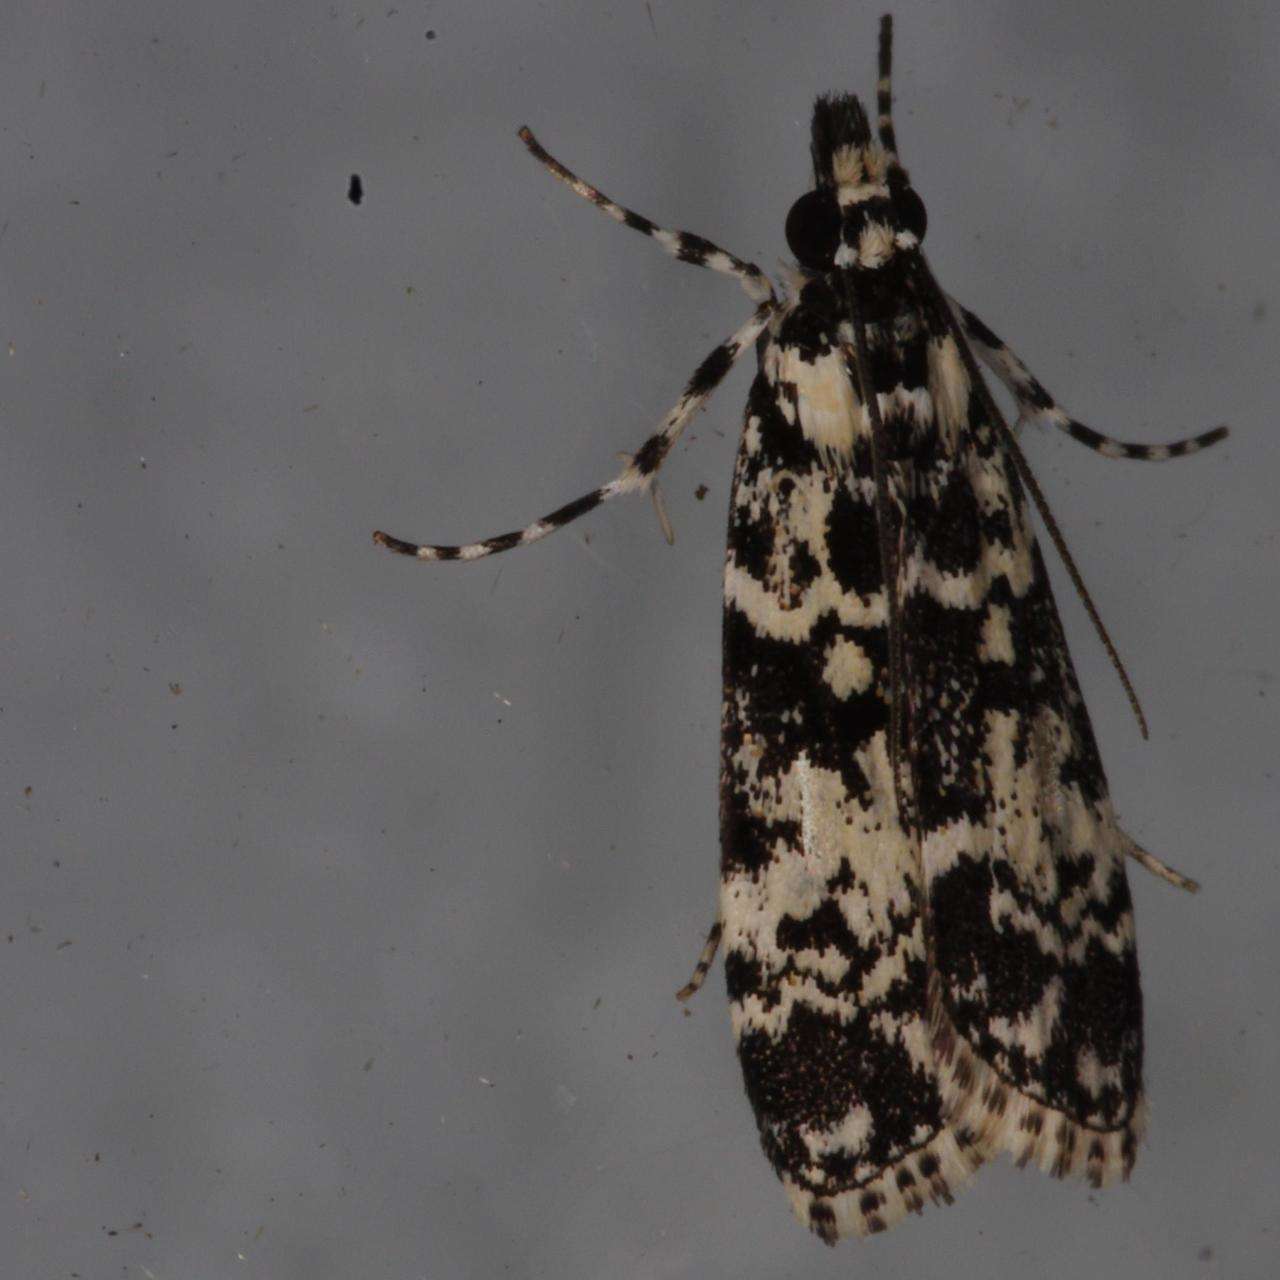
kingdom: Animalia
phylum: Arthropoda
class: Insecta
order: Lepidoptera
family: Crambidae
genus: Scoparia
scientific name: Scoparia exhibitalis
